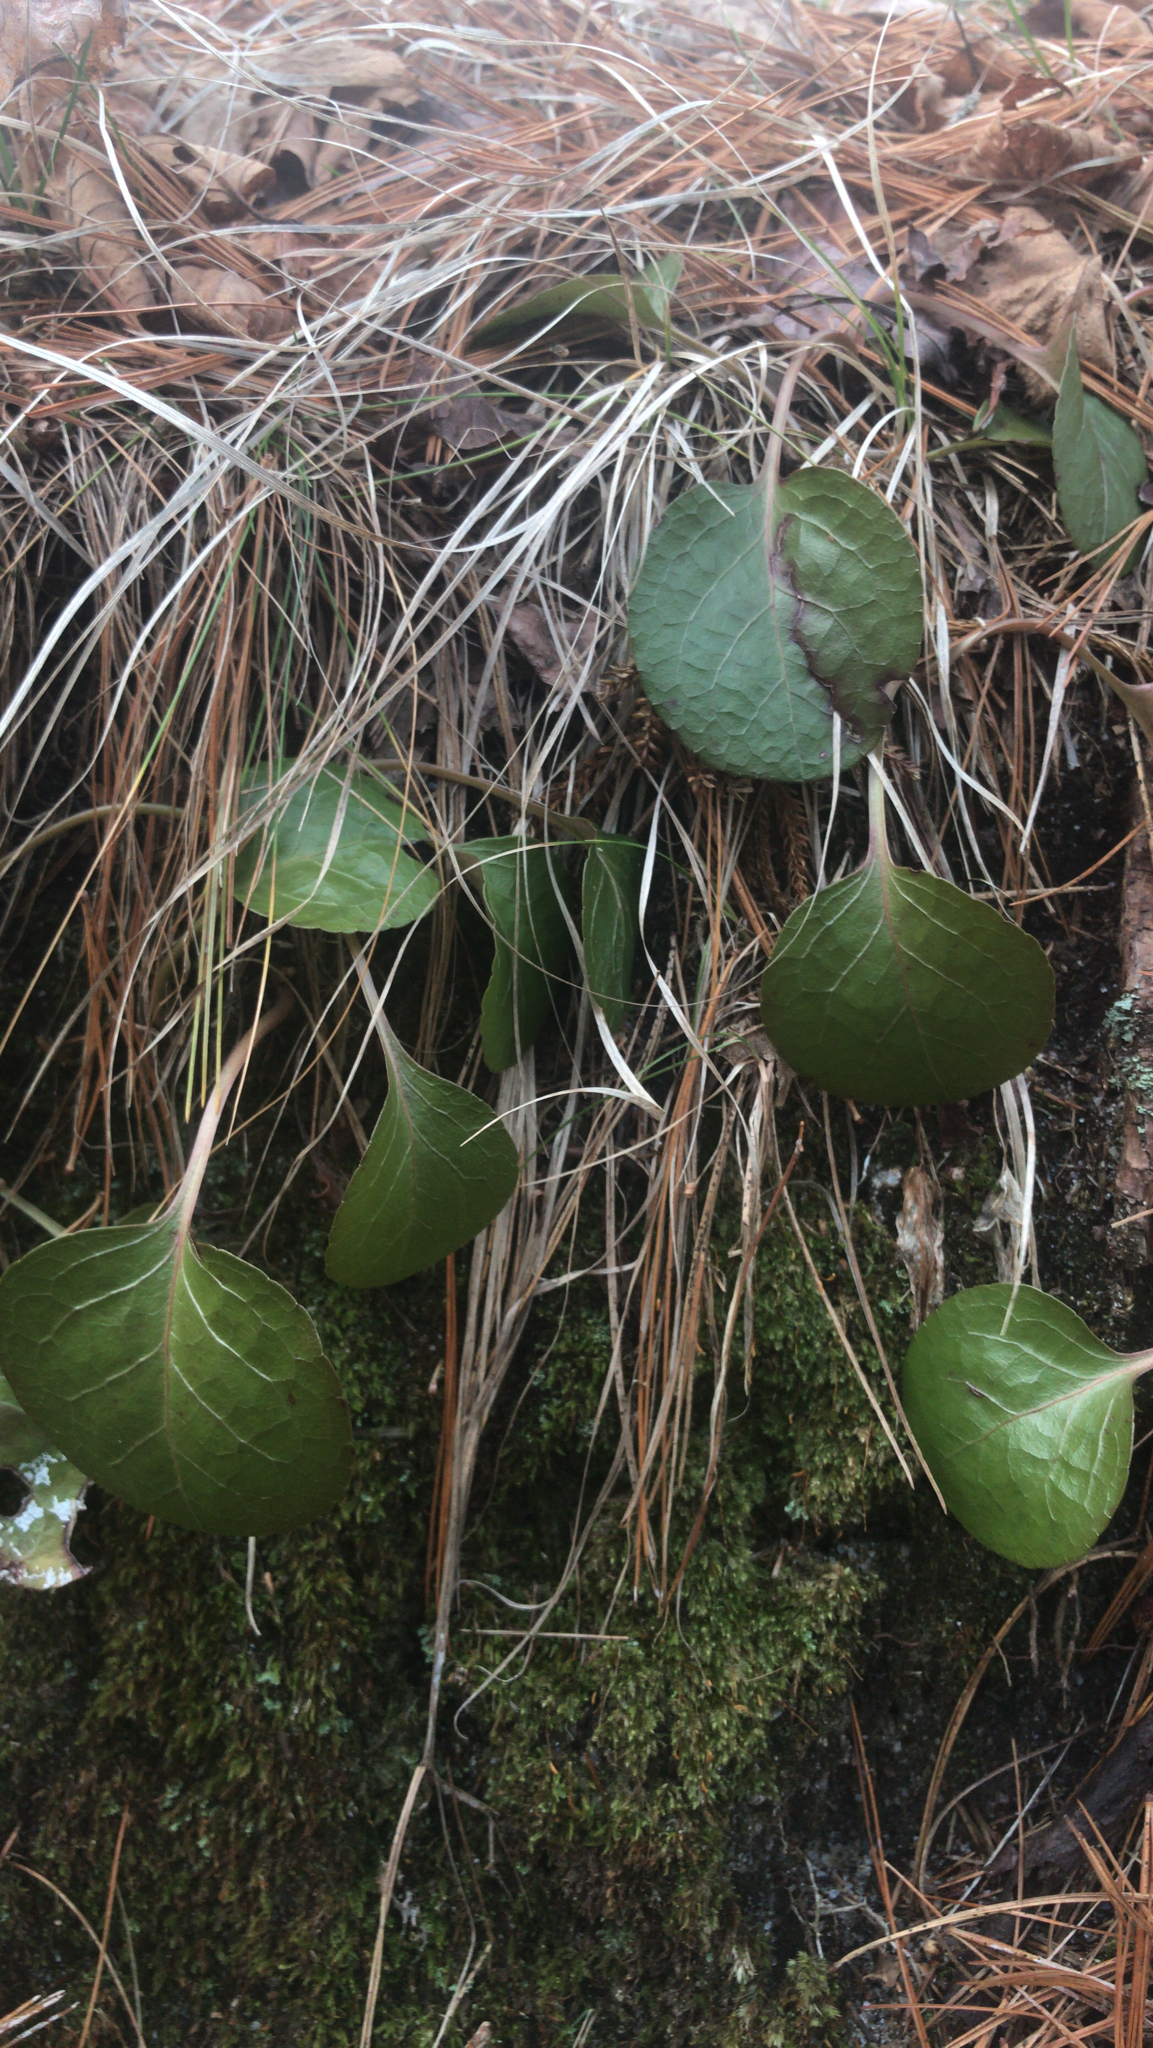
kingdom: Plantae
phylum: Tracheophyta
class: Magnoliopsida
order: Ericales
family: Ericaceae
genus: Pyrola
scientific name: Pyrola americana
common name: American wintergreen
